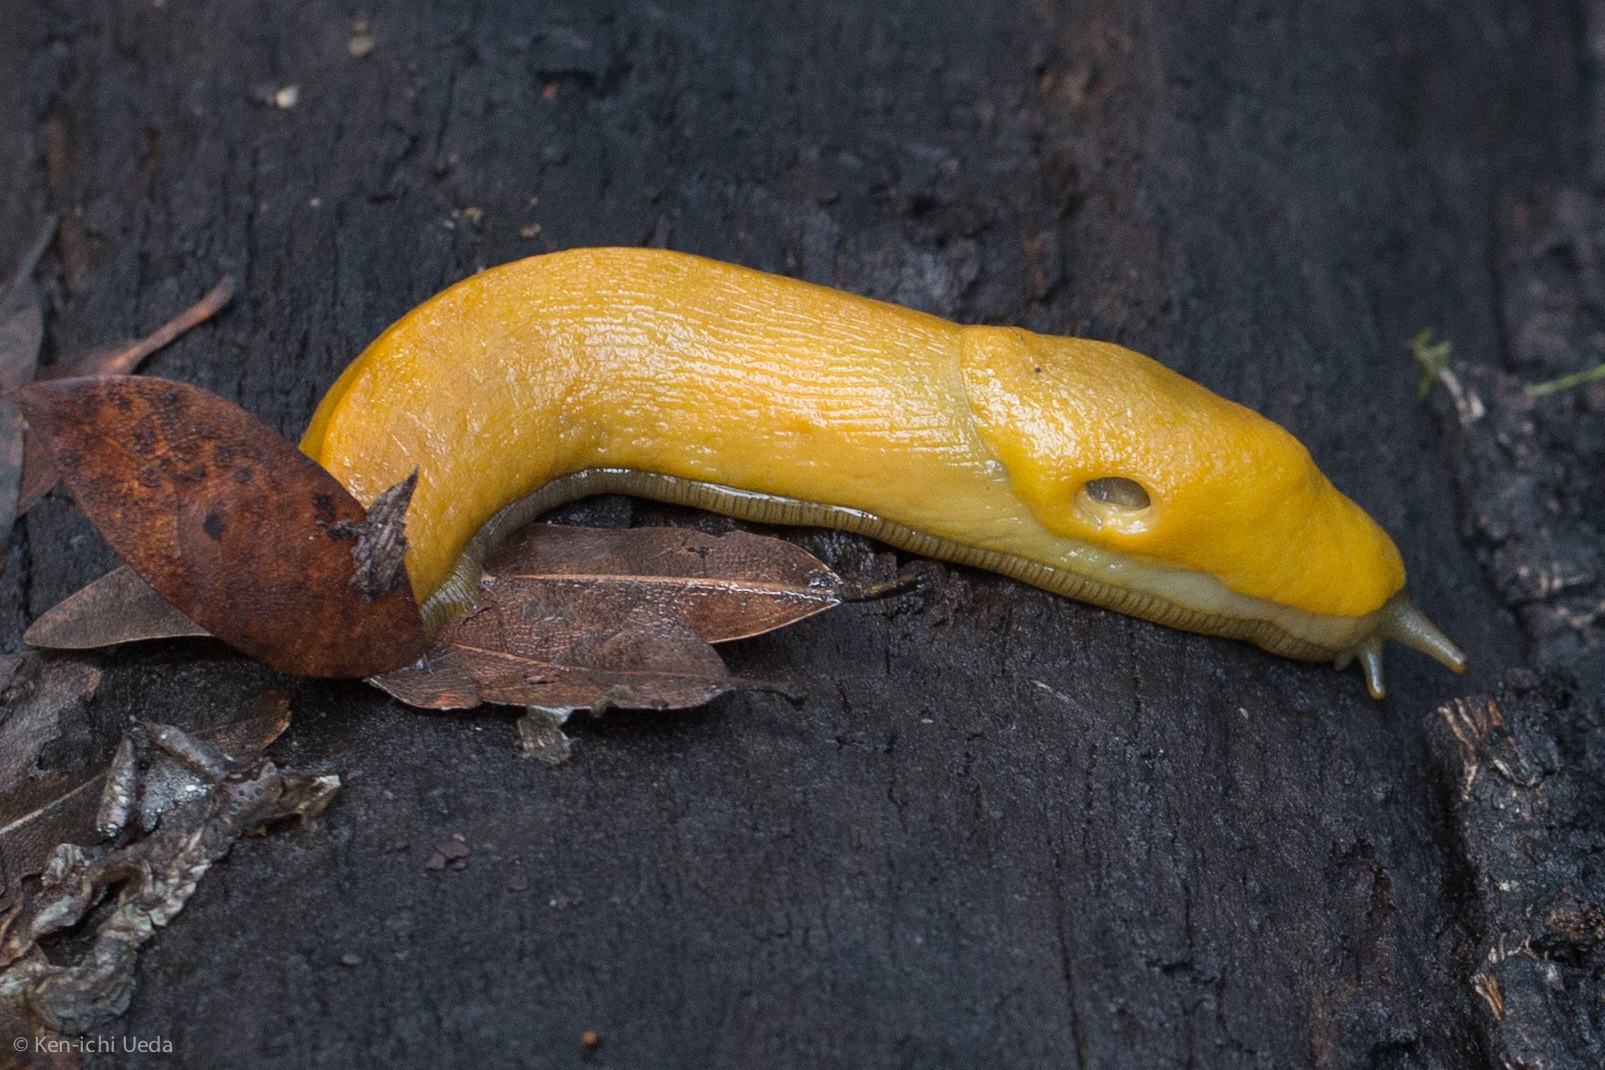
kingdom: Animalia
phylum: Mollusca
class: Gastropoda
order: Stylommatophora
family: Ariolimacidae
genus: Ariolimax
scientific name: Ariolimax
